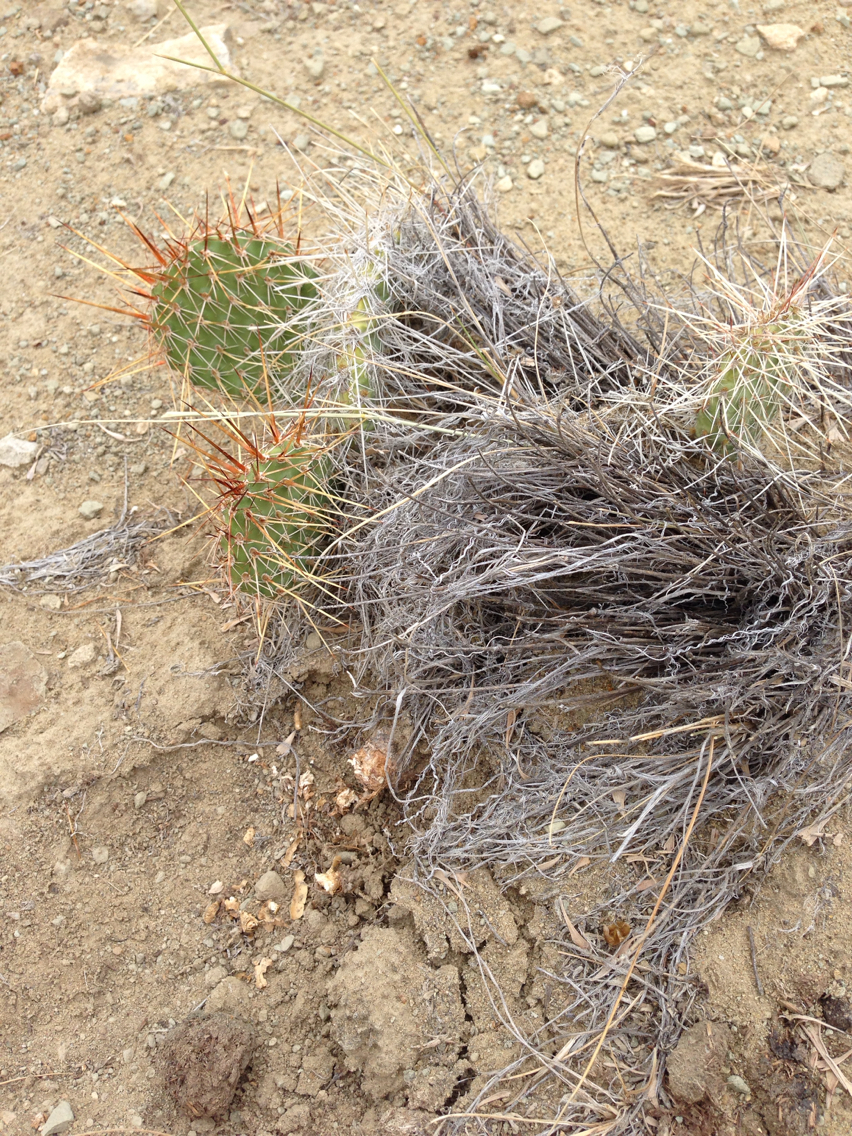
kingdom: Plantae
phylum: Tracheophyta
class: Magnoliopsida
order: Caryophyllales
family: Cactaceae
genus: Opuntia
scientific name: Opuntia polyacantha
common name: Plains prickly-pear
